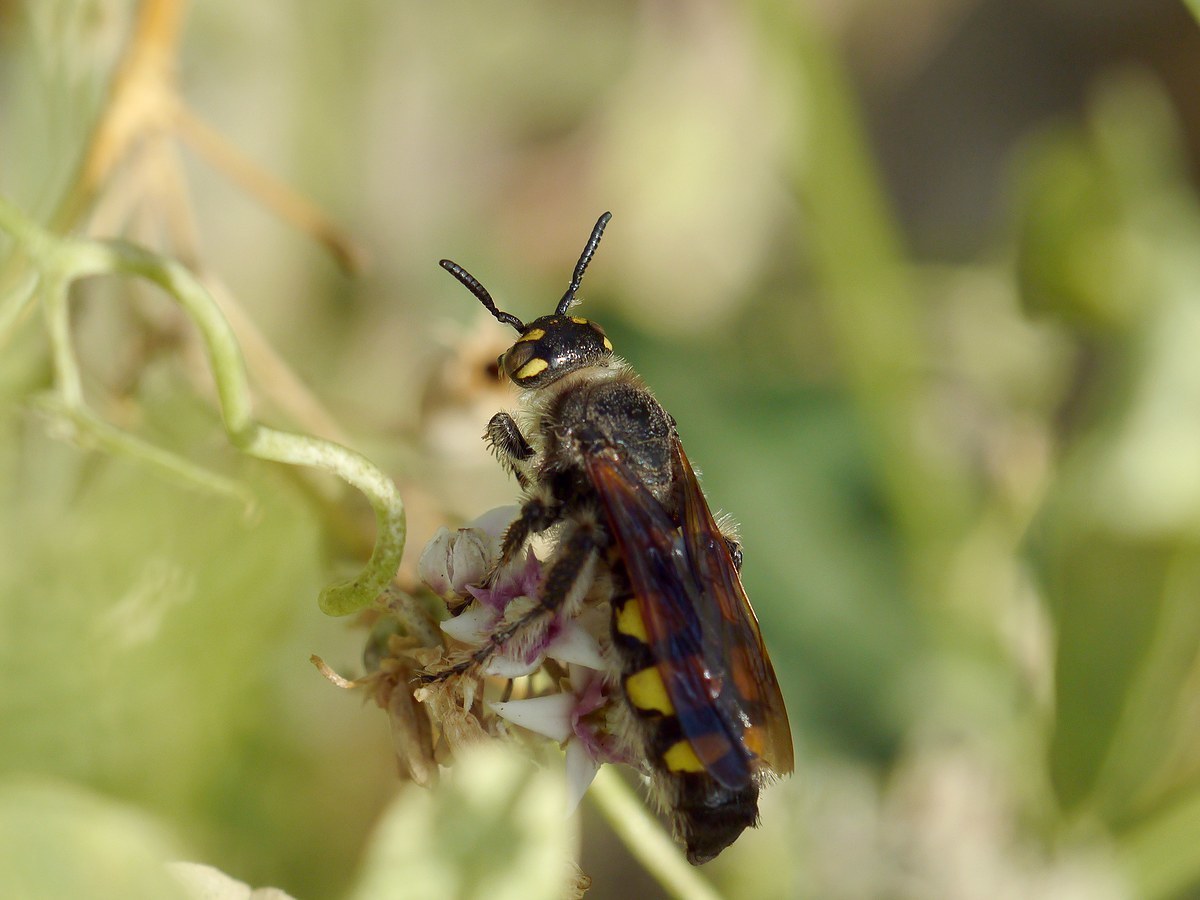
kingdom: Animalia
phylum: Arthropoda
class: Insecta
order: Hymenoptera
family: Vespidae
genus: Vespa
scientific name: Vespa sexmaculata
